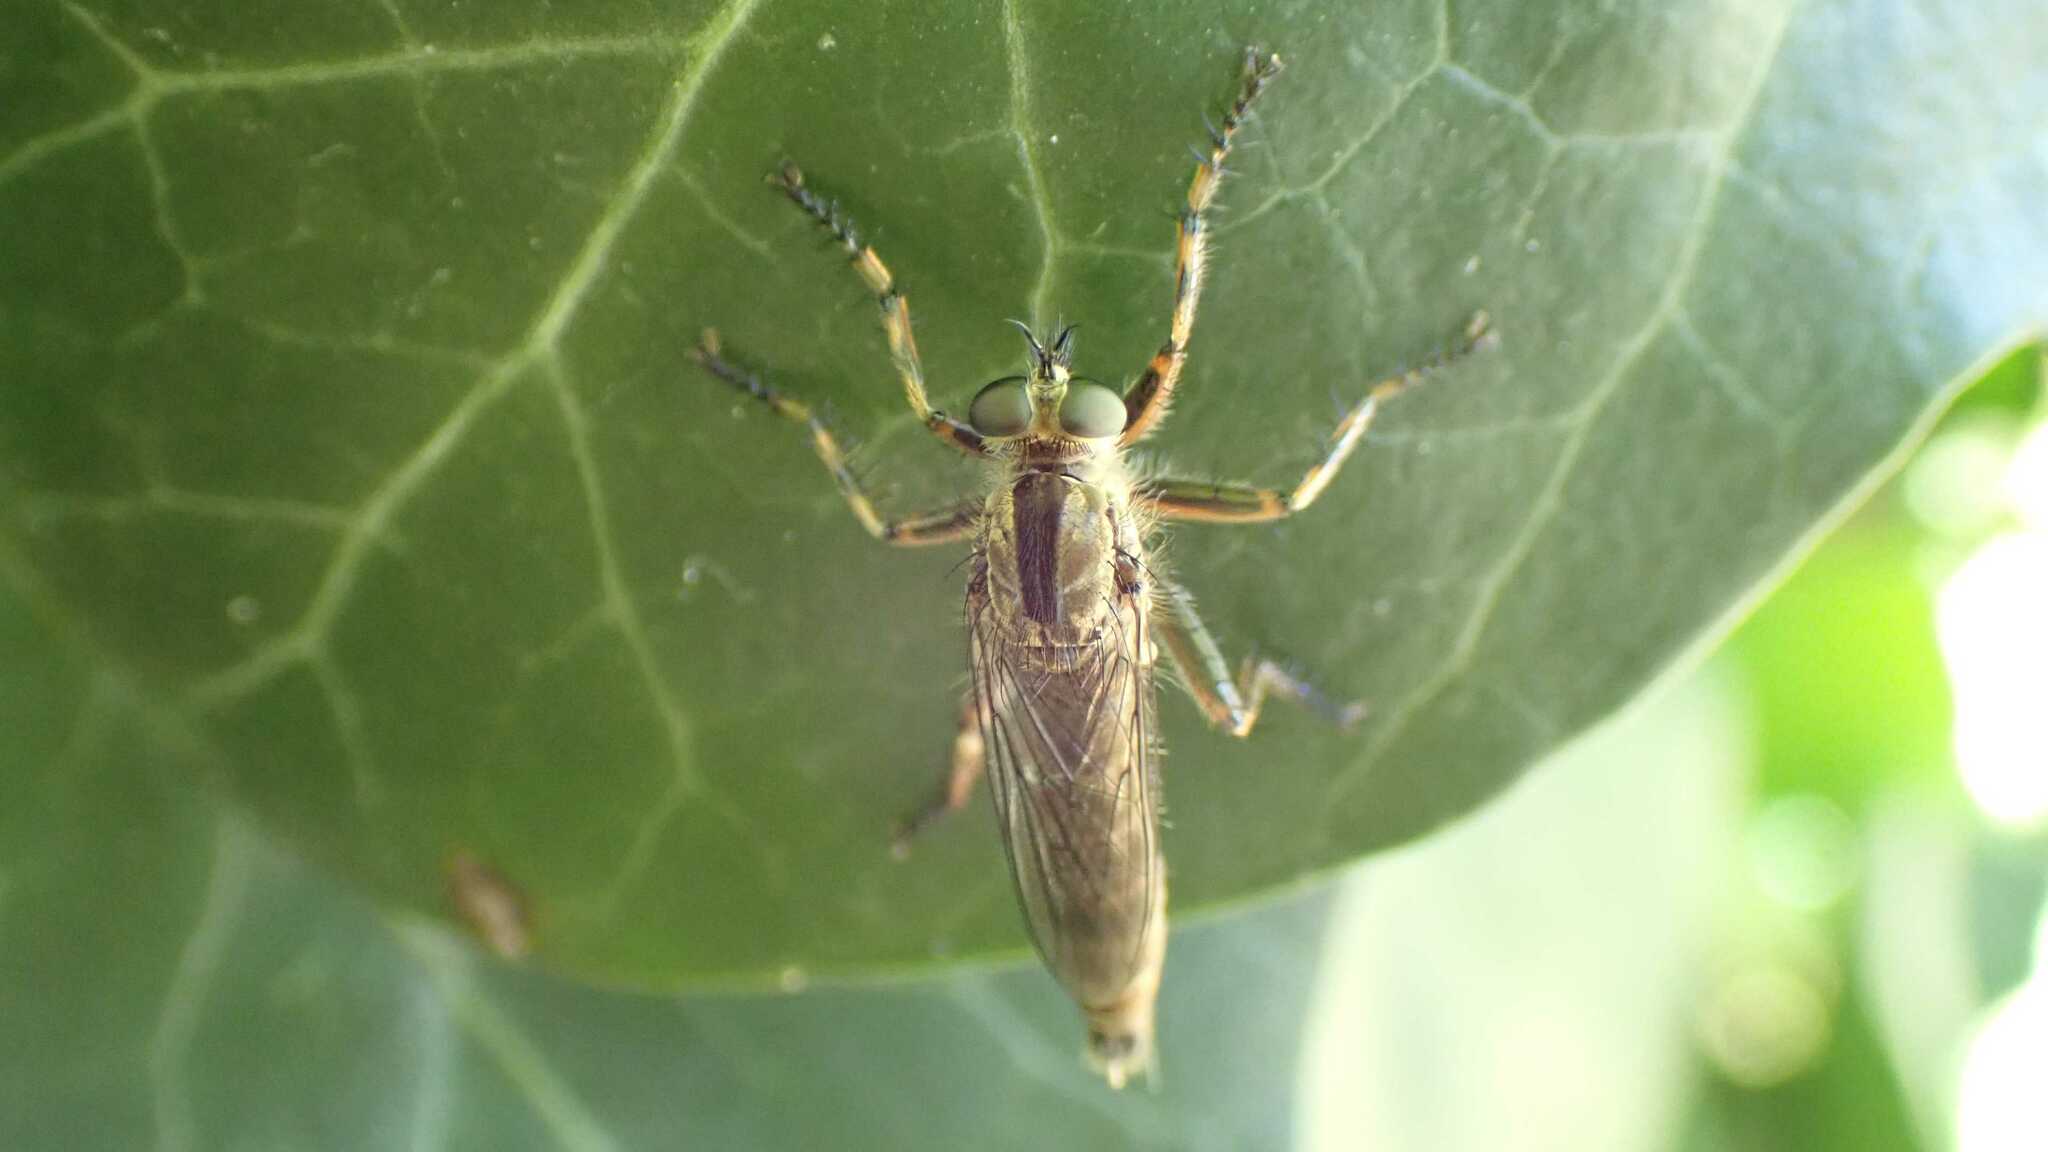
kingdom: Animalia
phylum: Arthropoda
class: Insecta
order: Diptera
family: Asilidae
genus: Epitriptus
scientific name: Epitriptus cingulatus
